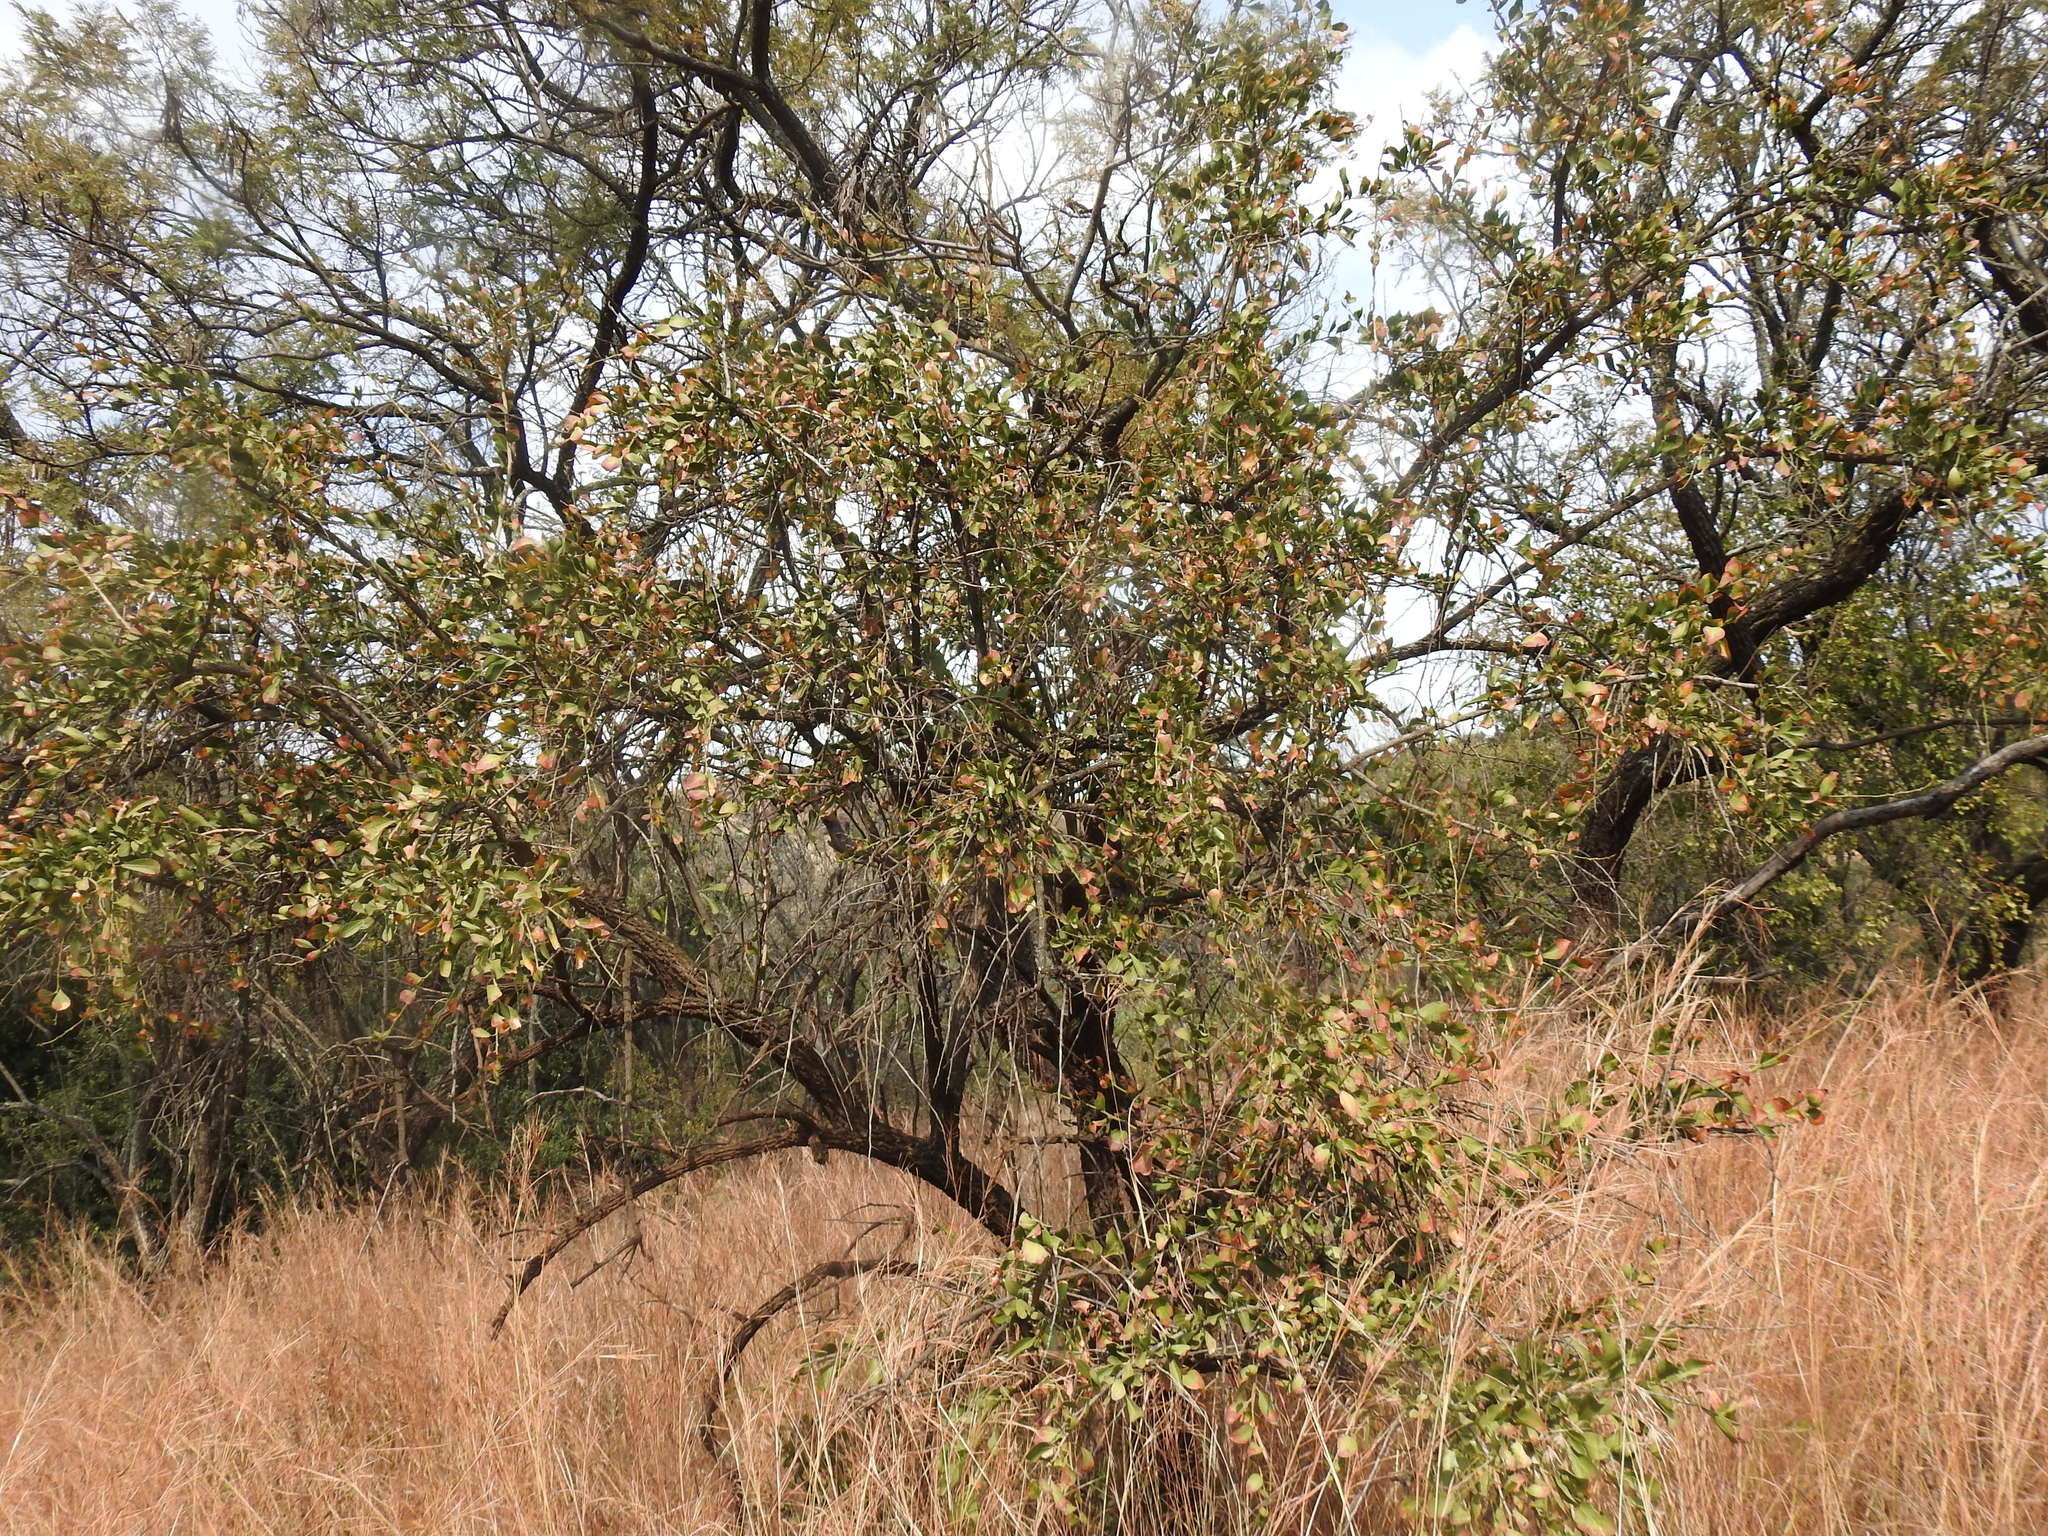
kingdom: Plantae
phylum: Tracheophyta
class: Magnoliopsida
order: Celastrales
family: Celastraceae
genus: Gymnosporia
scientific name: Gymnosporia buxifolia
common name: Common spike-thorn
